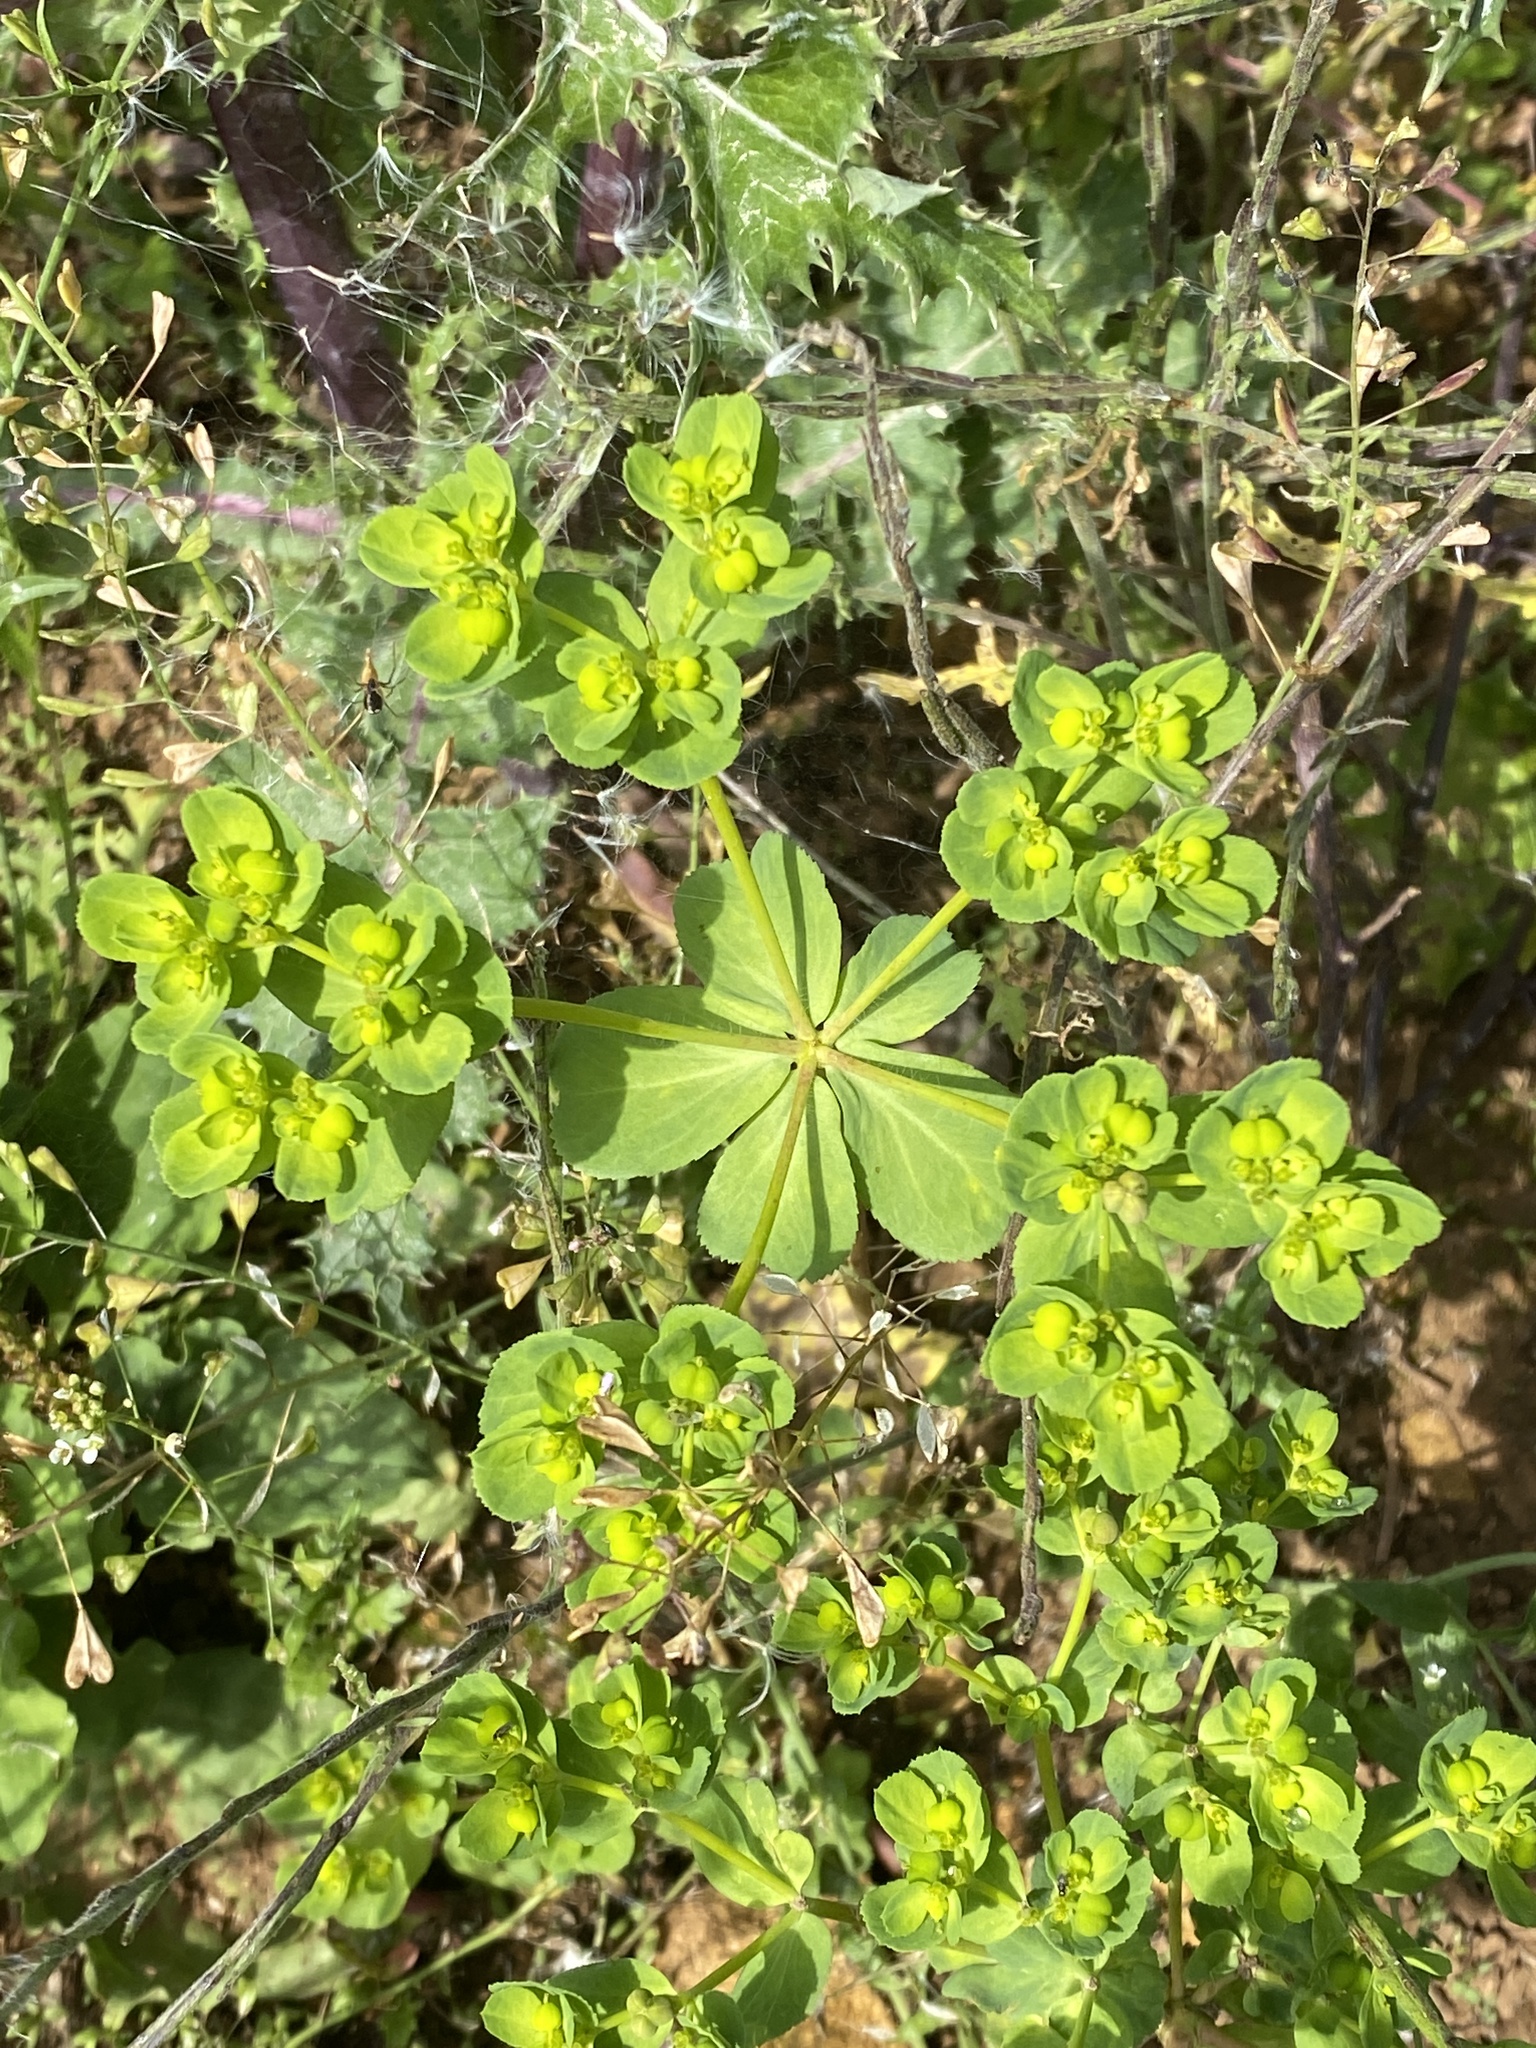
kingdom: Plantae
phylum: Tracheophyta
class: Magnoliopsida
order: Malpighiales
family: Euphorbiaceae
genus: Euphorbia
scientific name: Euphorbia helioscopia
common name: Sun spurge
